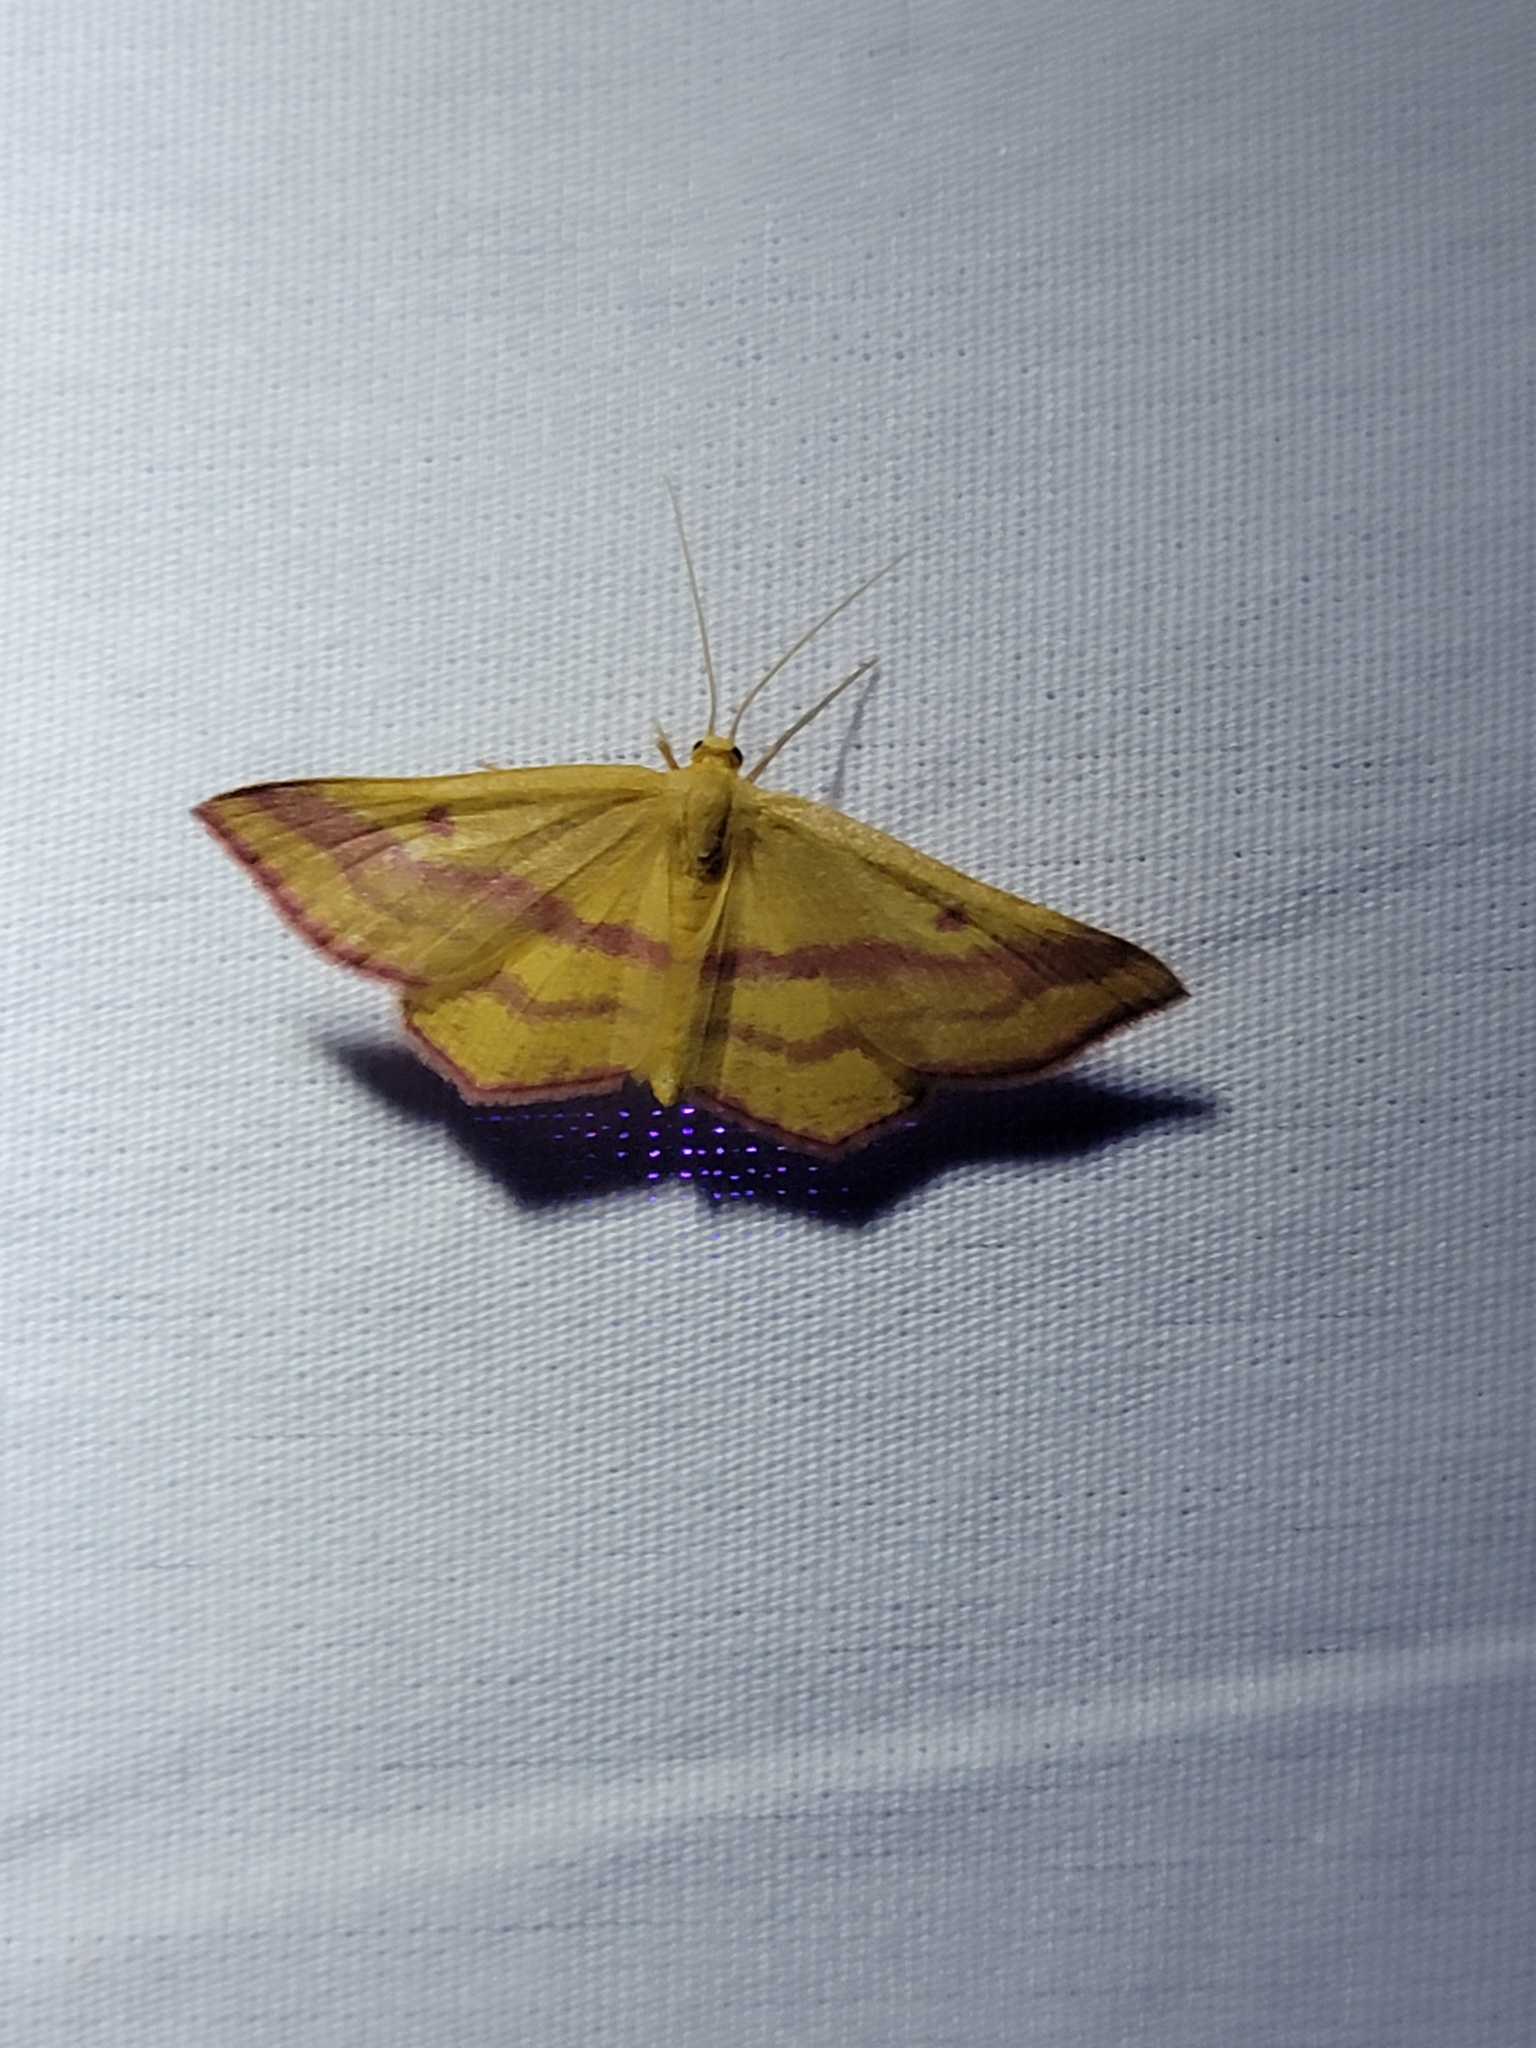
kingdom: Animalia
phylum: Arthropoda
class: Insecta
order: Lepidoptera
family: Geometridae
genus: Haematopis
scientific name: Haematopis grataria
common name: Chickweed geometer
